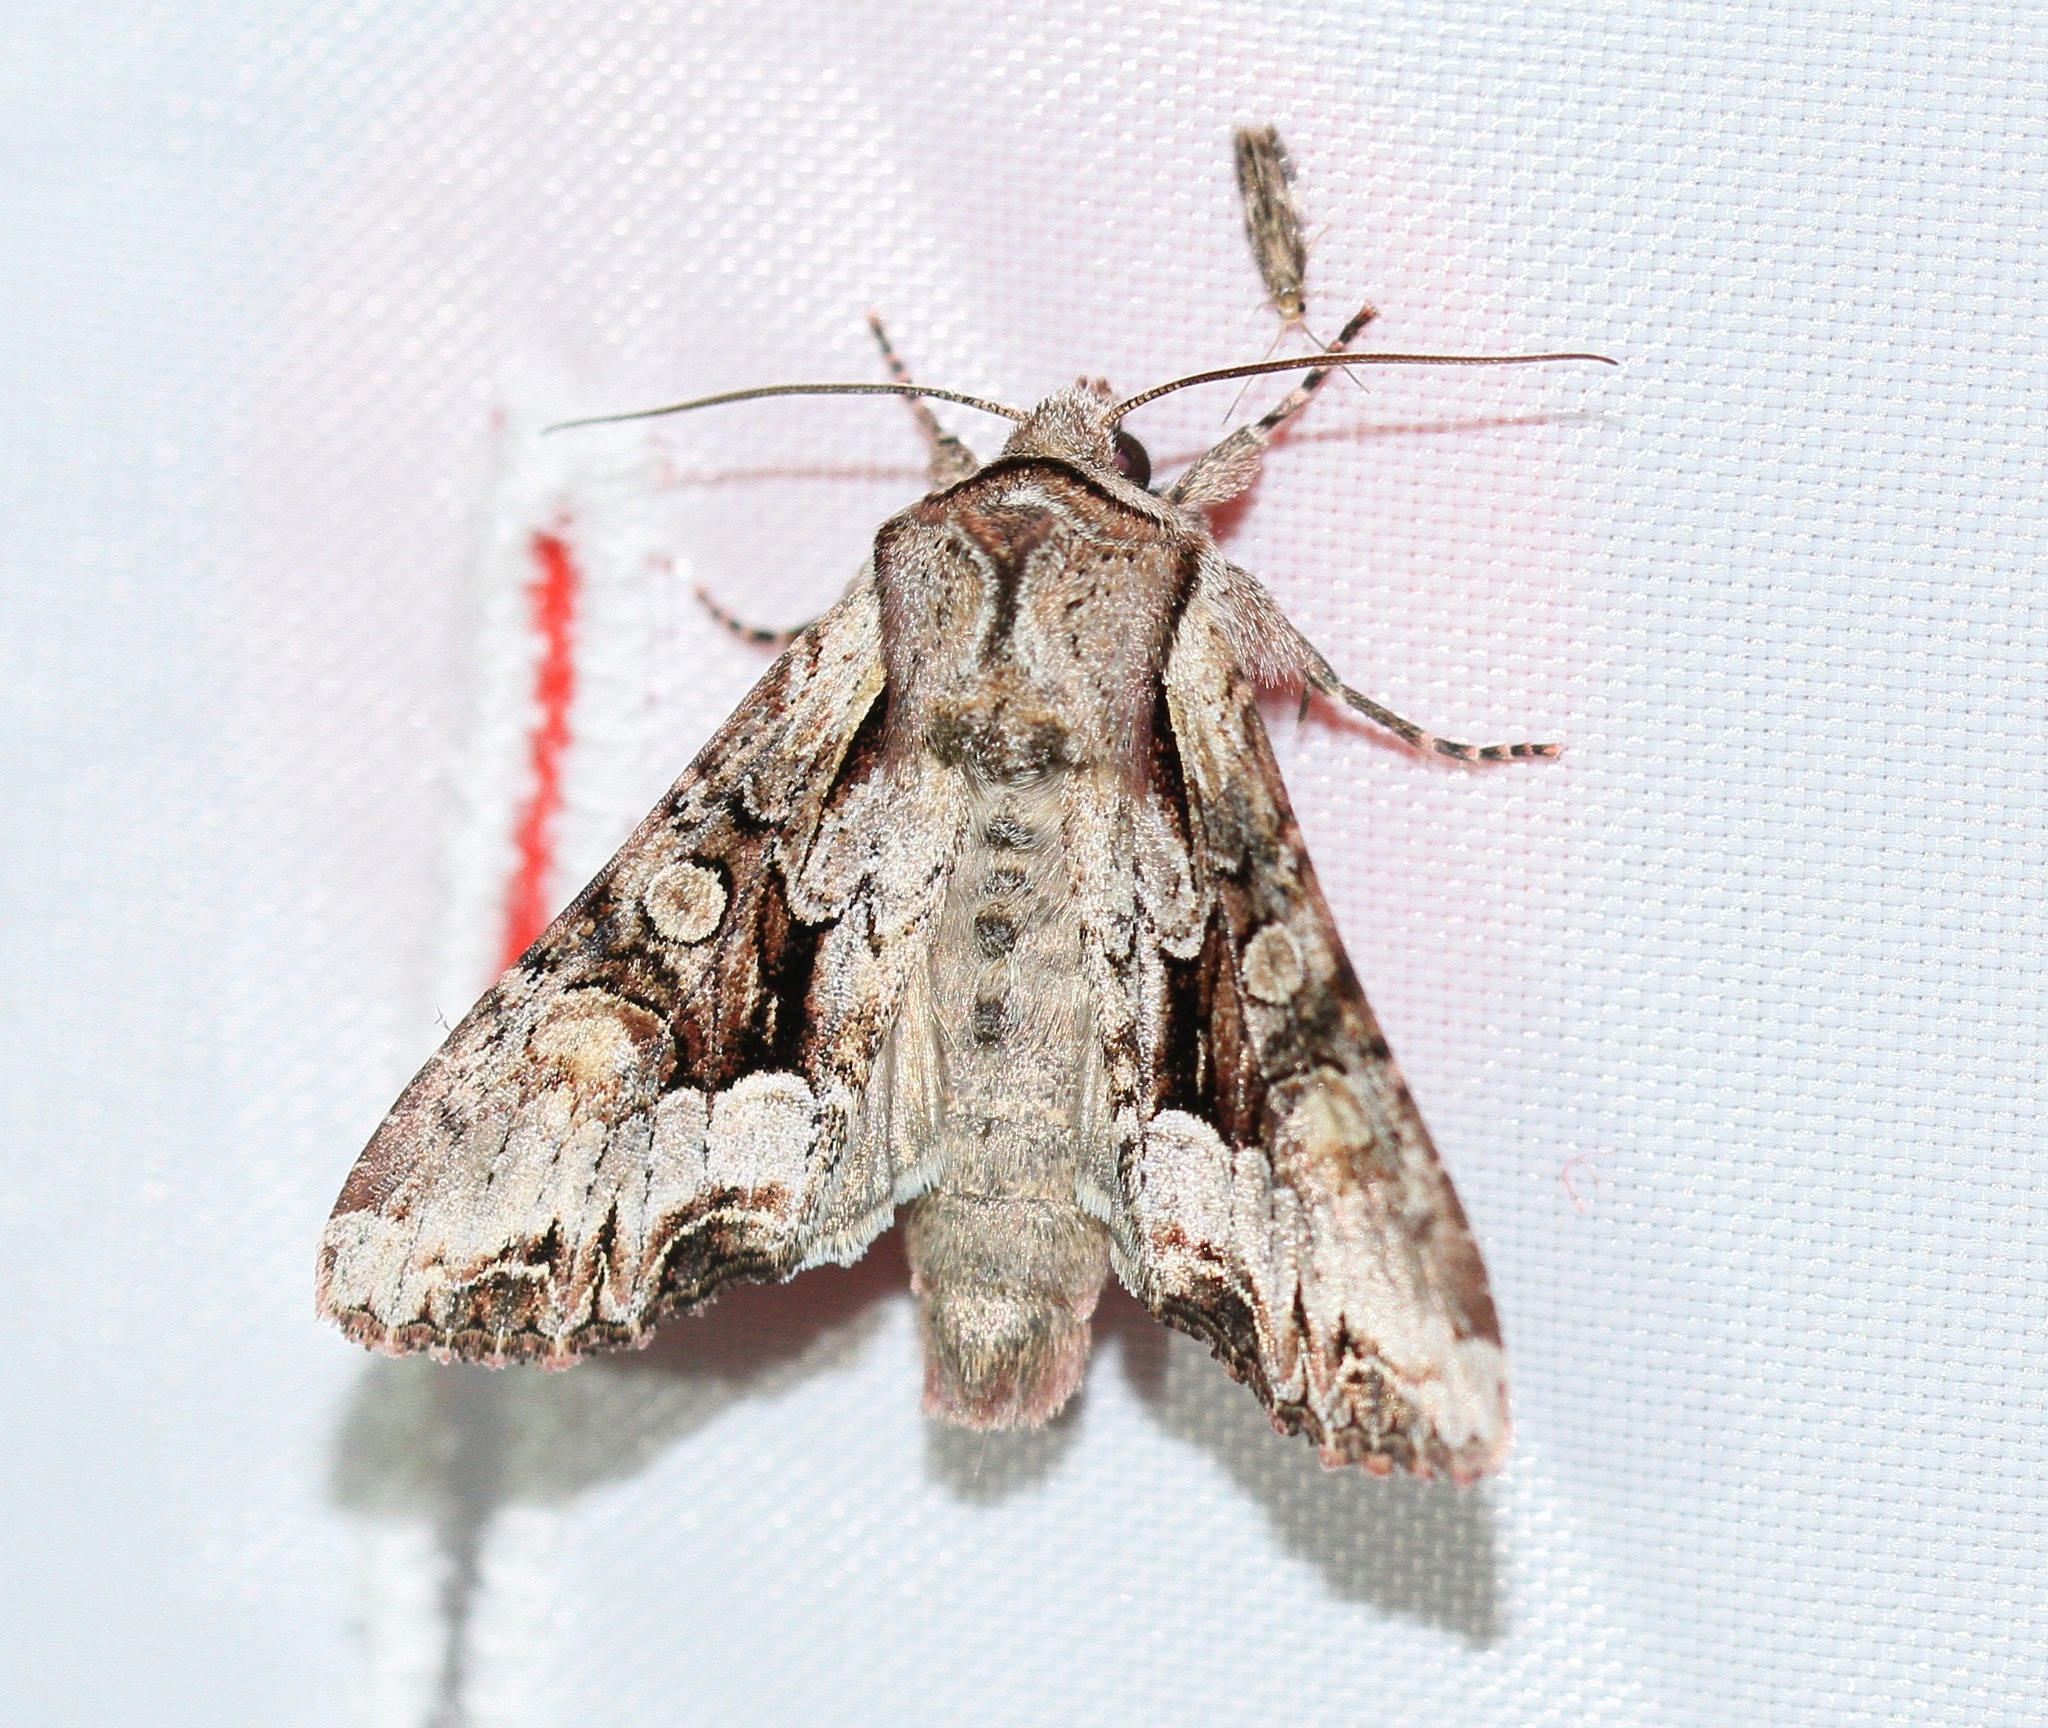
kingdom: Animalia
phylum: Arthropoda
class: Insecta
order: Lepidoptera
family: Noctuidae
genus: Lacanobia
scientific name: Lacanobia w-latinum
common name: Light brocade
